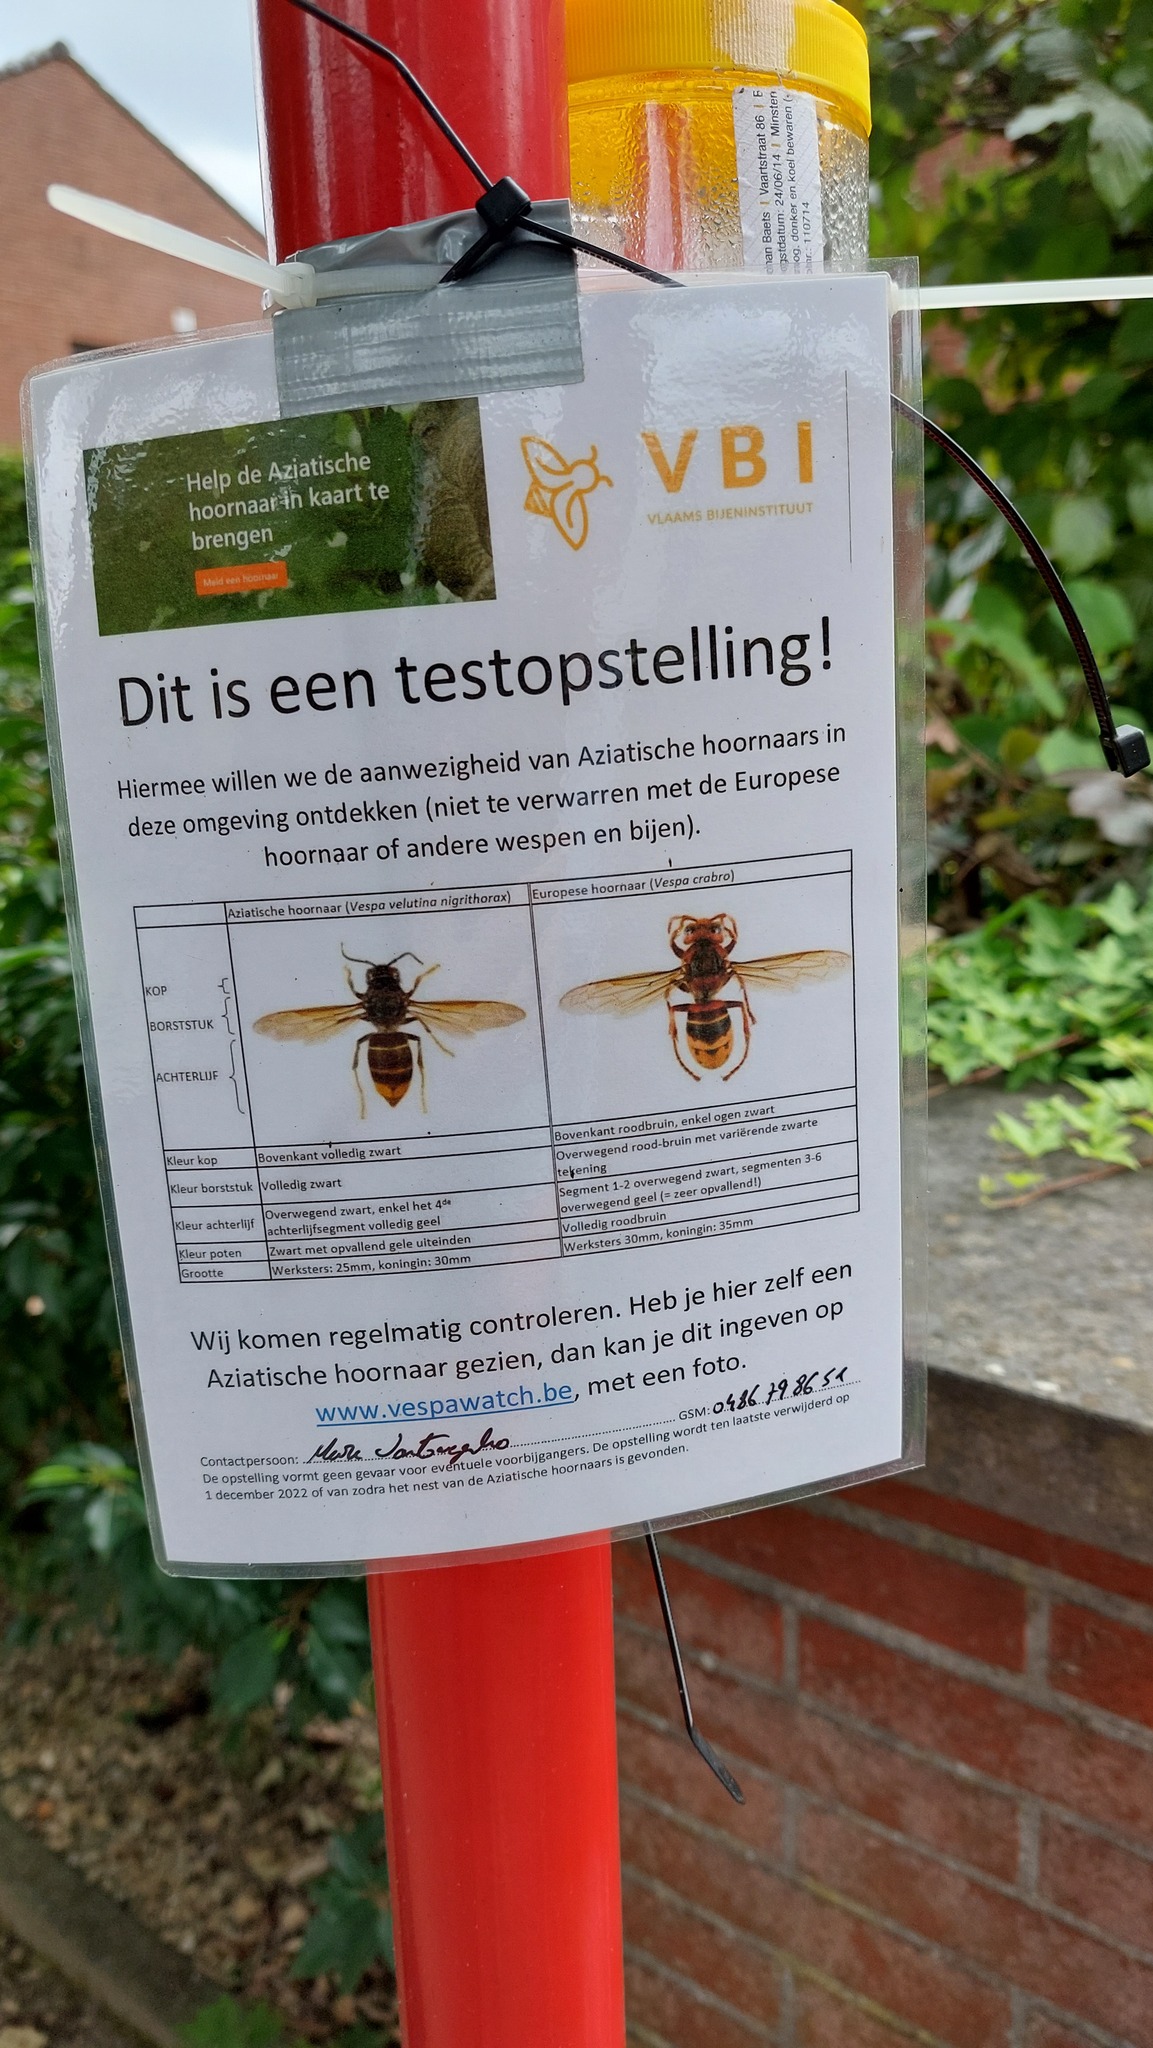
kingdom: Animalia
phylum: Arthropoda
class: Insecta
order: Hymenoptera
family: Vespidae
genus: Vespa
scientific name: Vespa velutina
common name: Asian hornet
